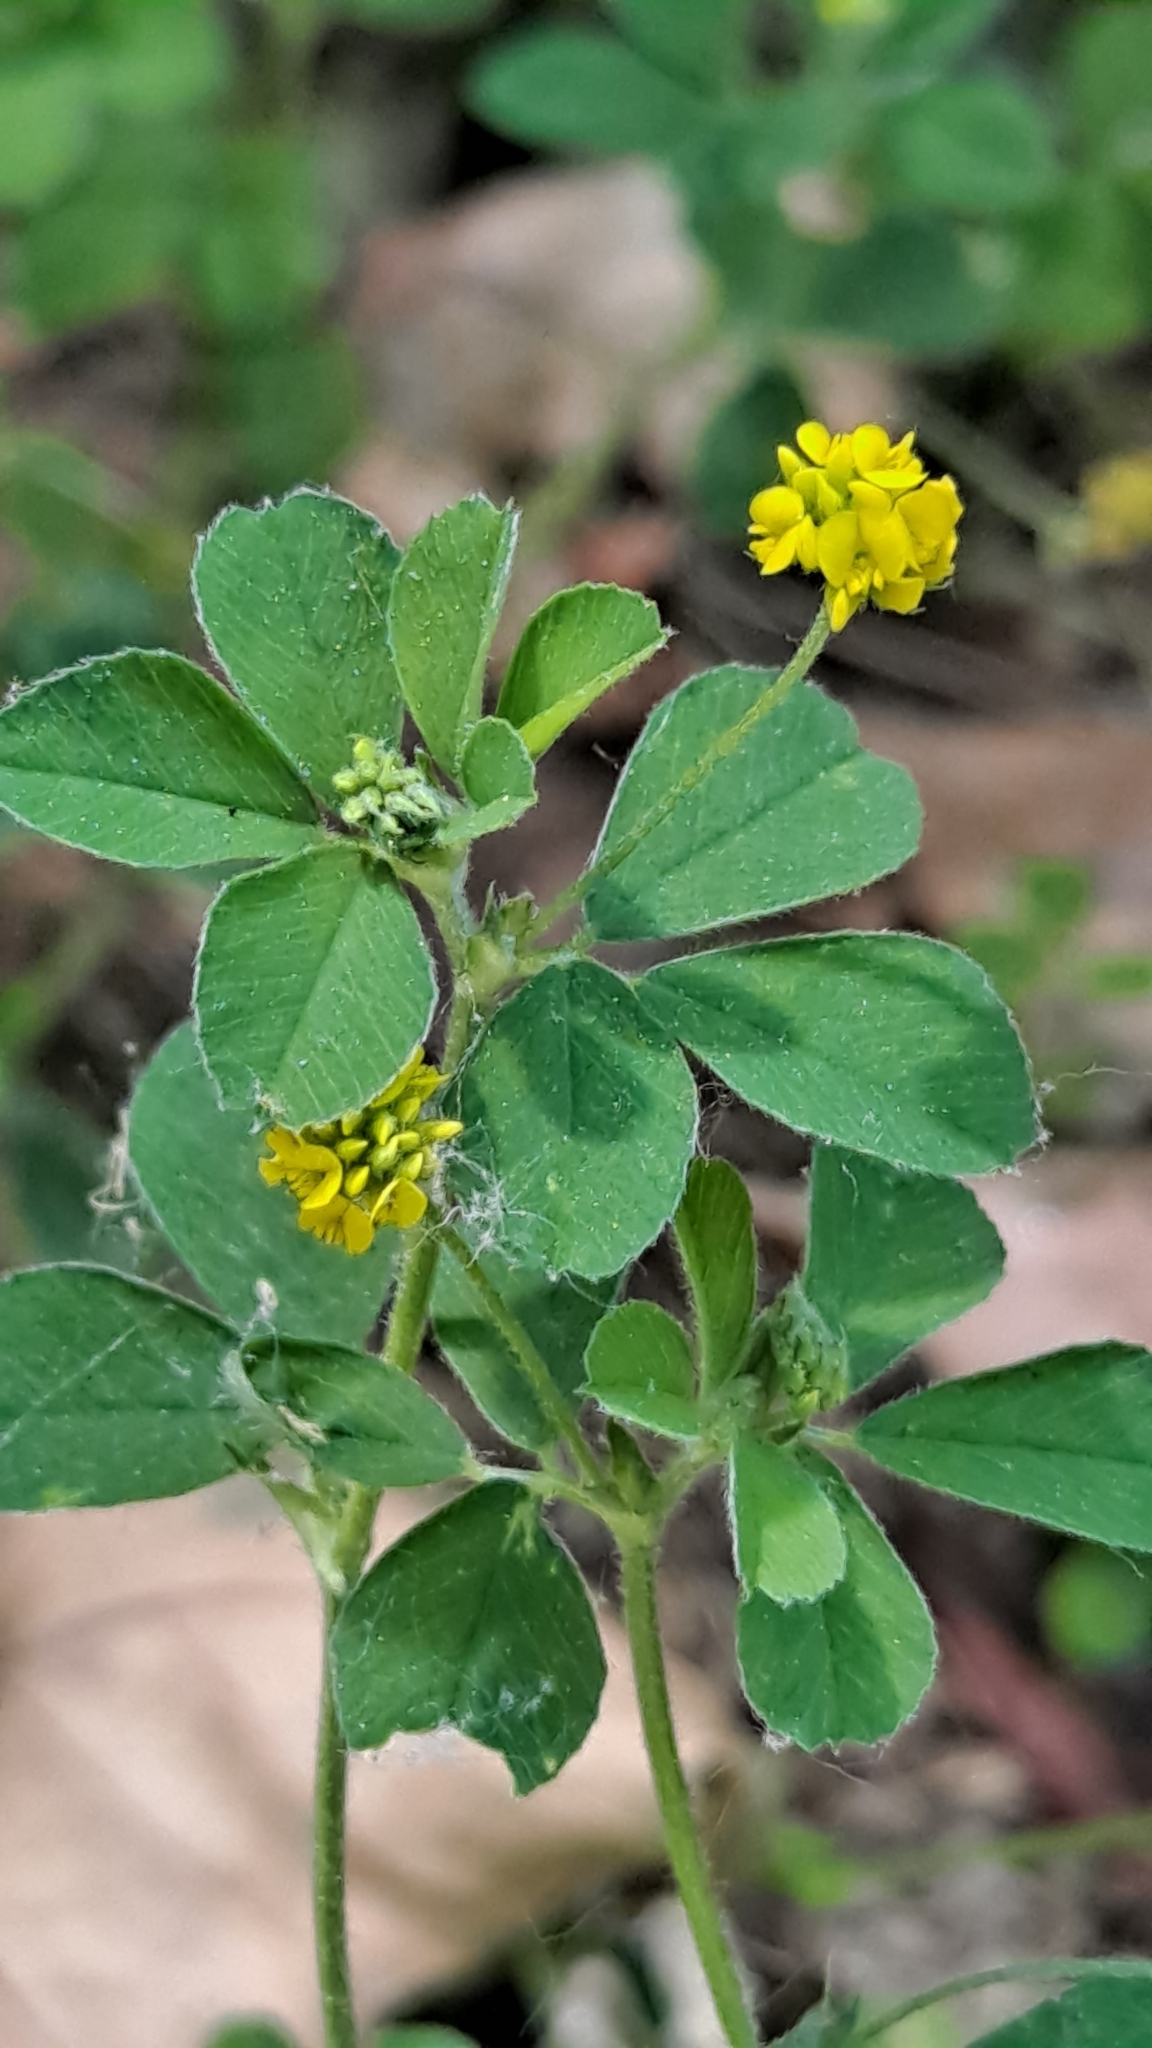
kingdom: Plantae
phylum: Tracheophyta
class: Magnoliopsida
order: Fabales
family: Fabaceae
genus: Medicago
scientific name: Medicago lupulina
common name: Black medick
